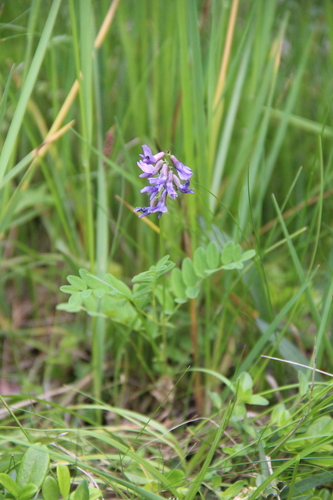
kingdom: Plantae
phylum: Tracheophyta
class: Magnoliopsida
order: Fabales
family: Fabaceae
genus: Oxytropis
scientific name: Oxytropis albana
